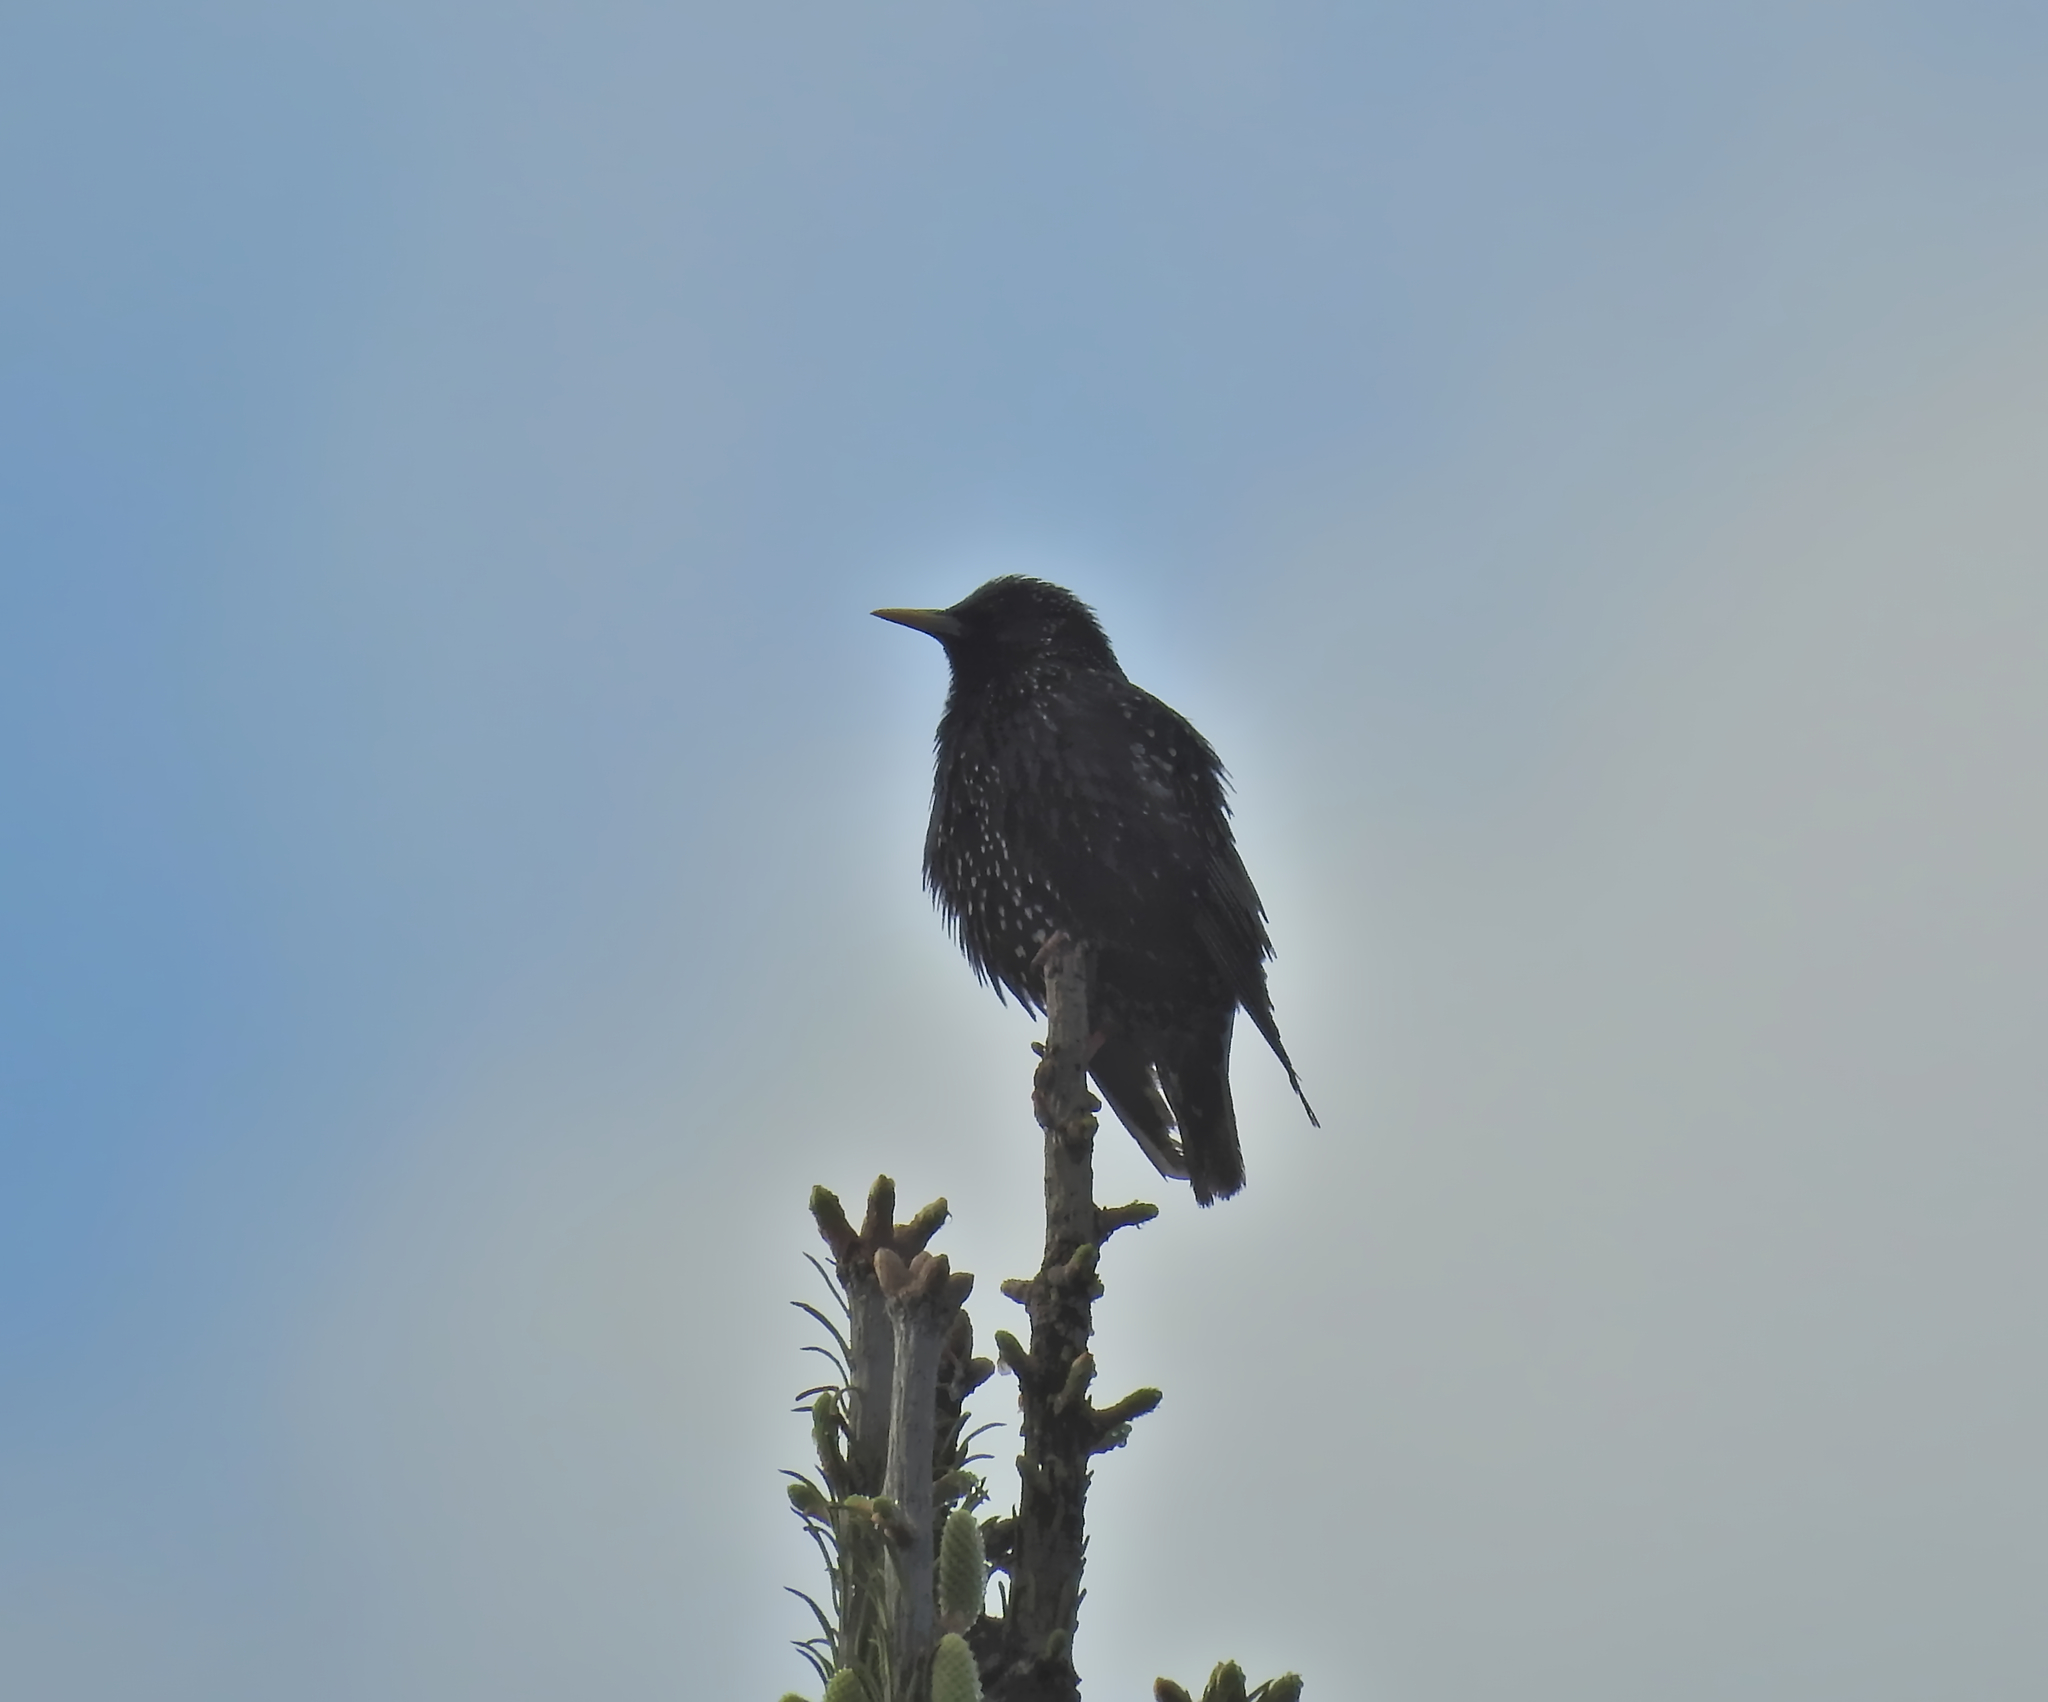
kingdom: Animalia
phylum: Chordata
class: Aves
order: Passeriformes
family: Sturnidae
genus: Sturnus
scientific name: Sturnus vulgaris
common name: Common starling
